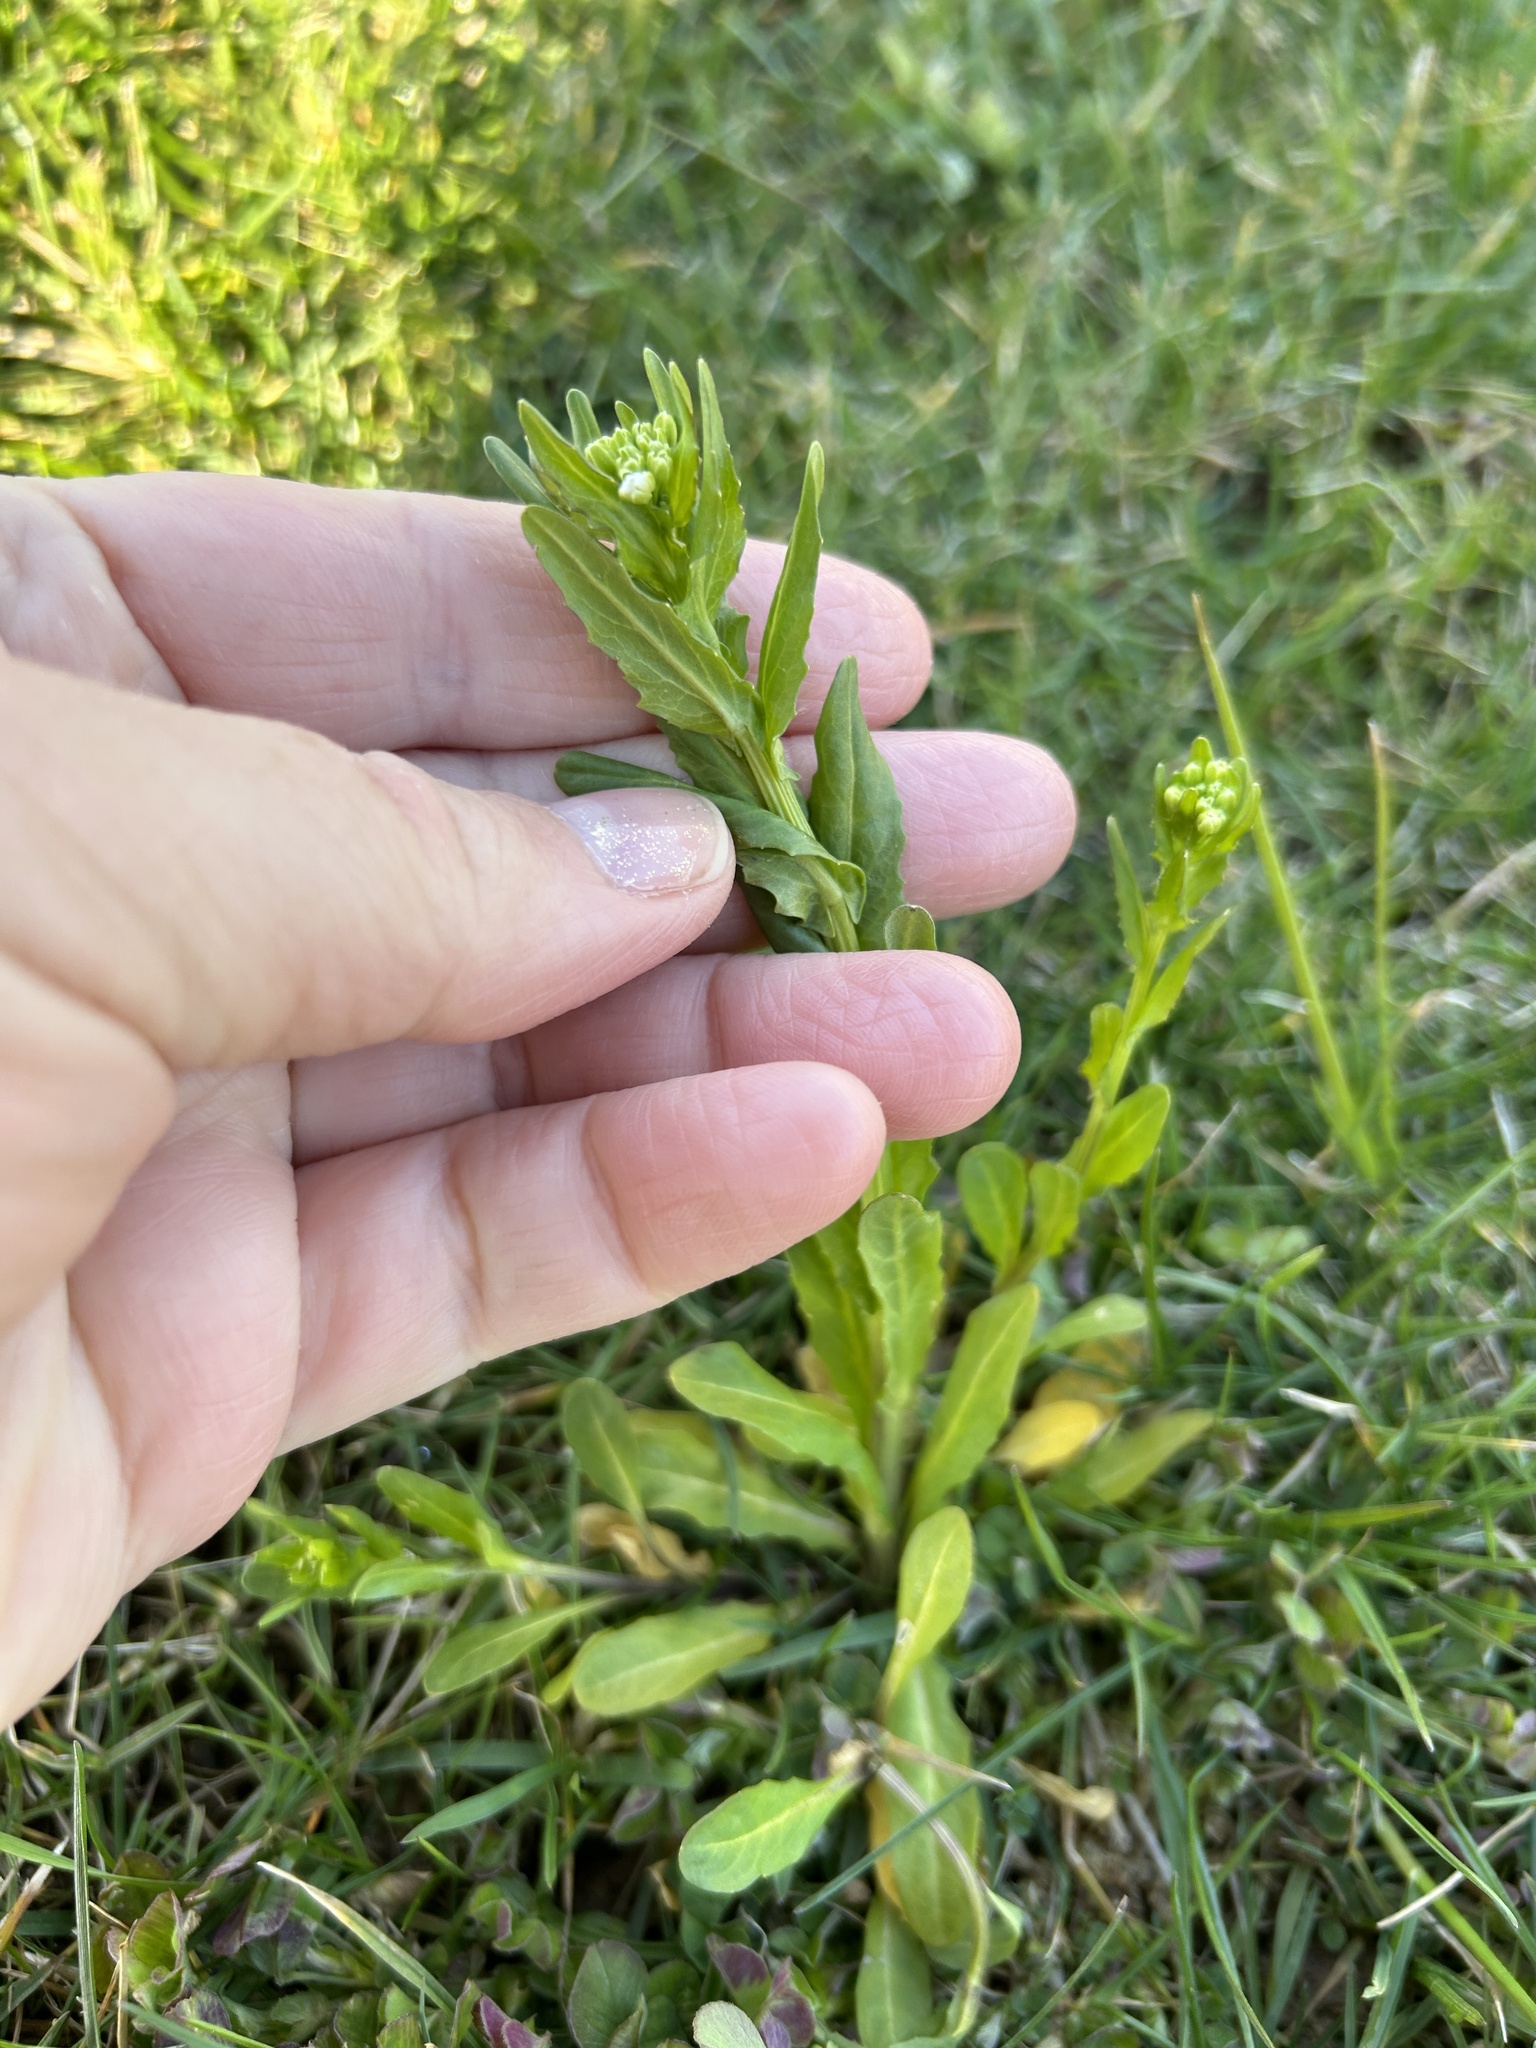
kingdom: Plantae
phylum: Tracheophyta
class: Magnoliopsida
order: Brassicales
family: Brassicaceae
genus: Thlaspi
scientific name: Thlaspi arvense
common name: Field pennycress
